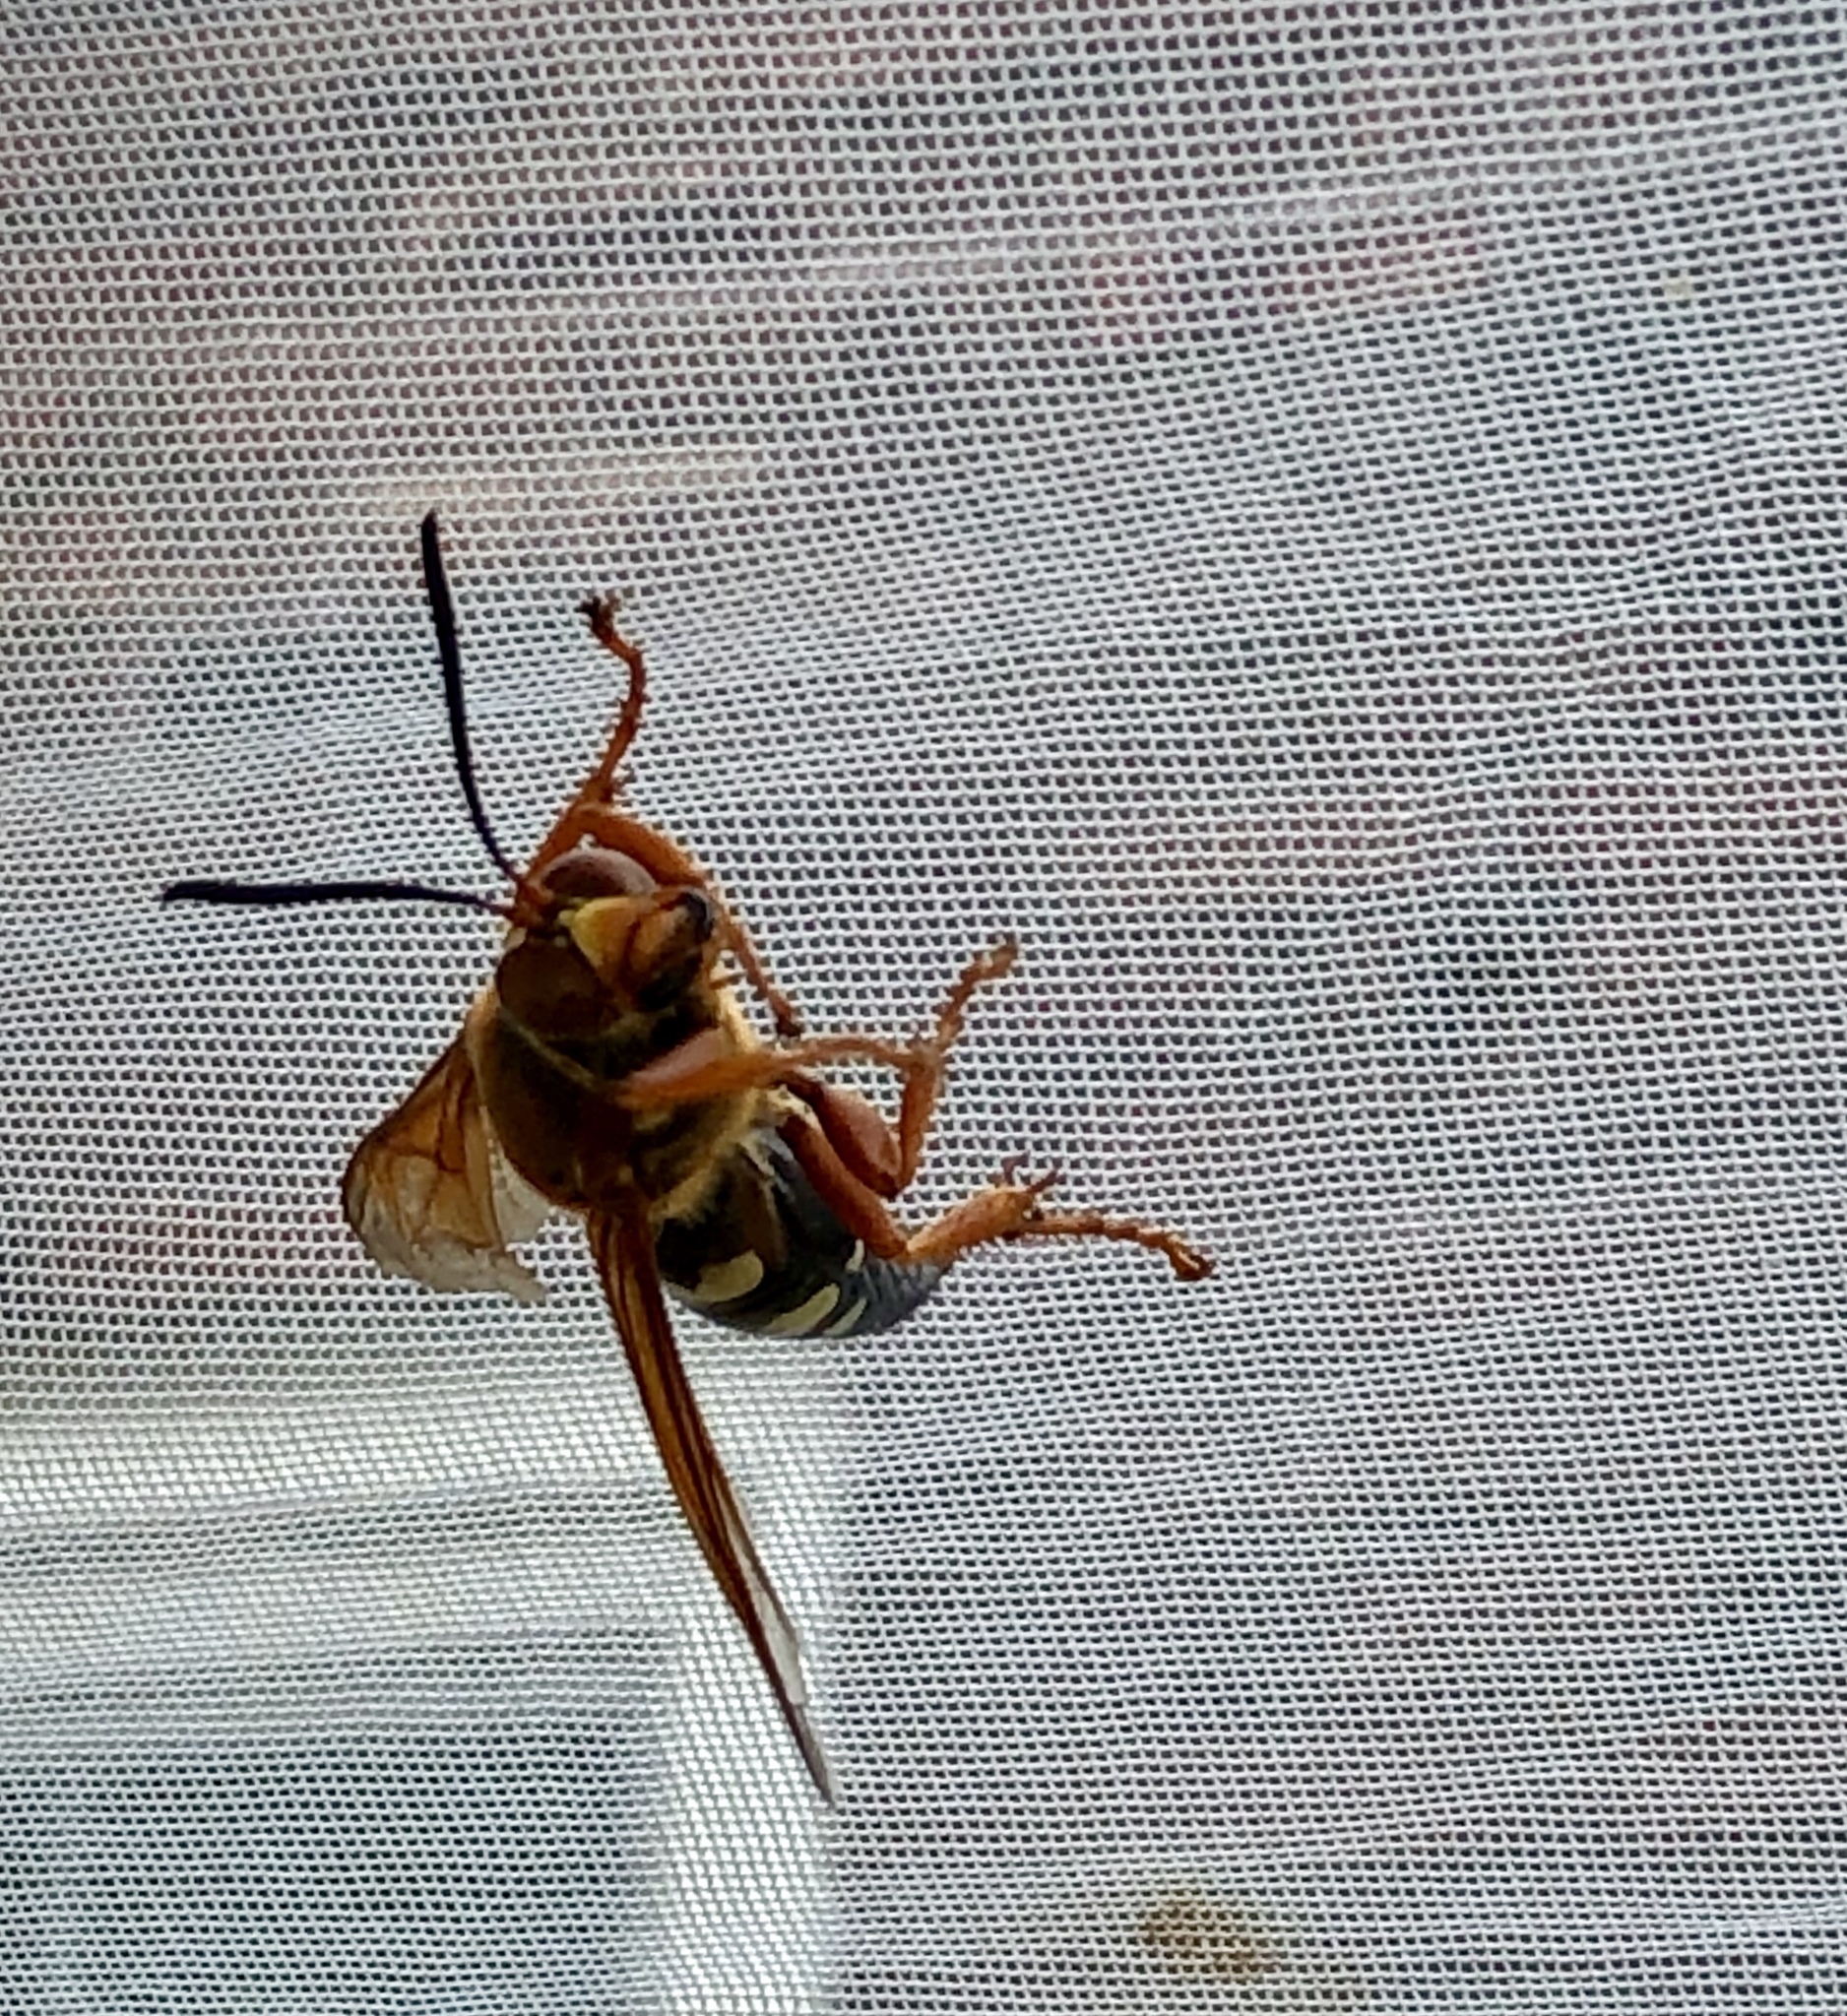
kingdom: Animalia
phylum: Arthropoda
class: Insecta
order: Hymenoptera
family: Crabronidae
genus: Sphecius
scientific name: Sphecius speciosus
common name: Cicada killer
